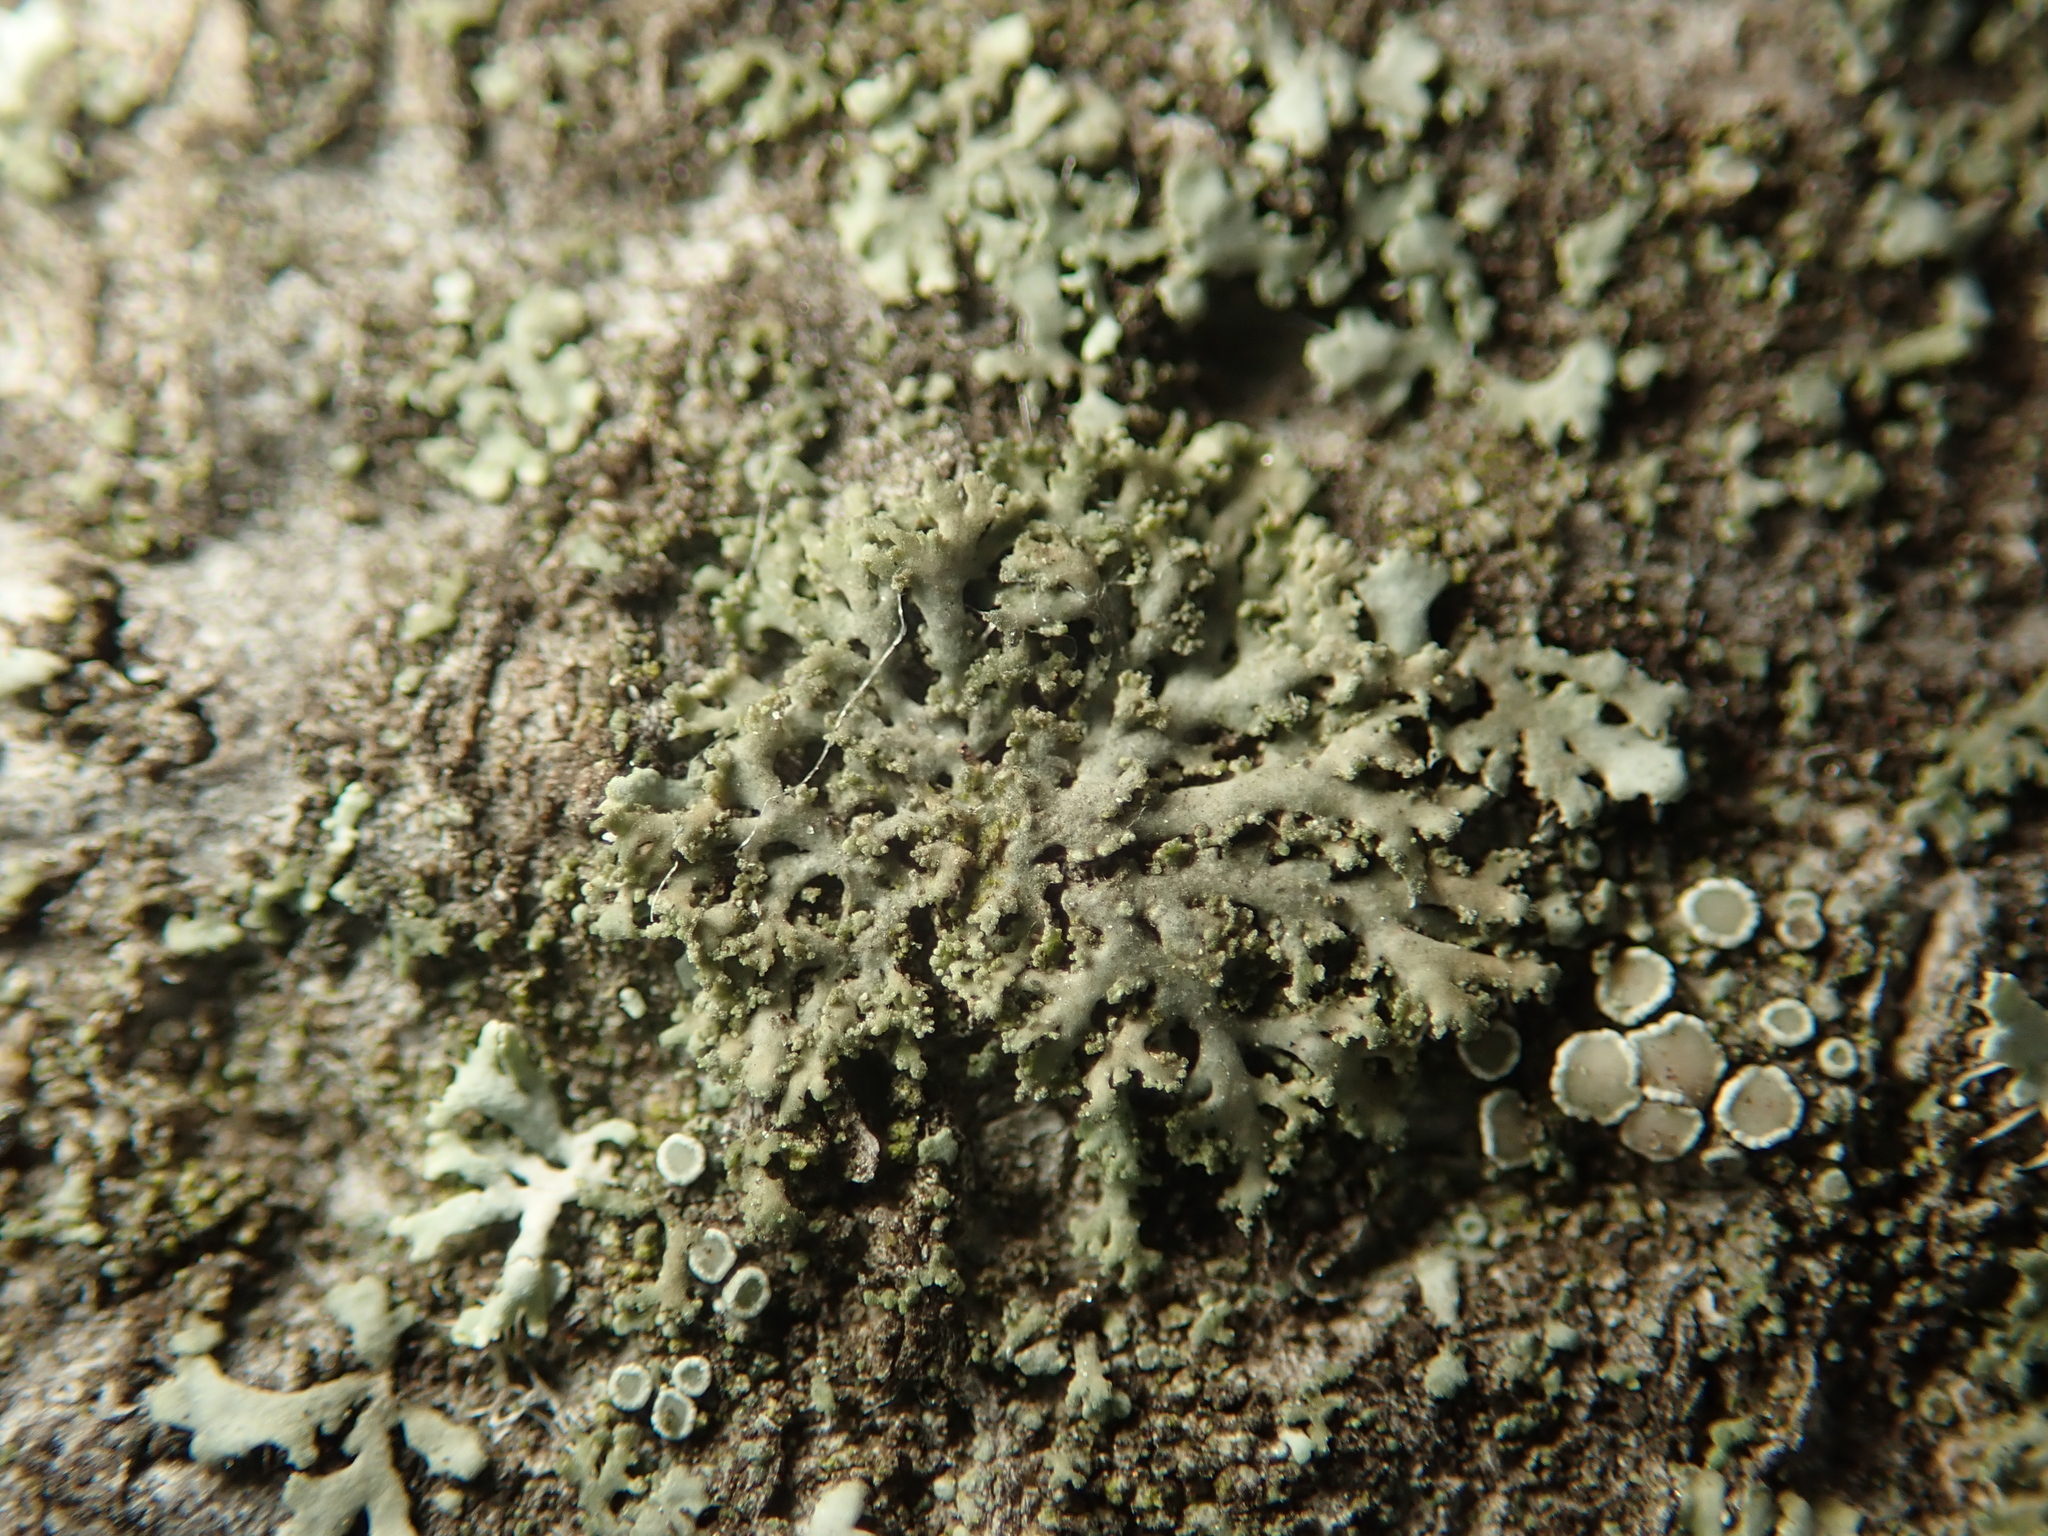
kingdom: Fungi
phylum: Ascomycota
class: Lecanoromycetes
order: Caliciales
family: Physciaceae
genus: Physciella
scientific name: Physciella nigricans
